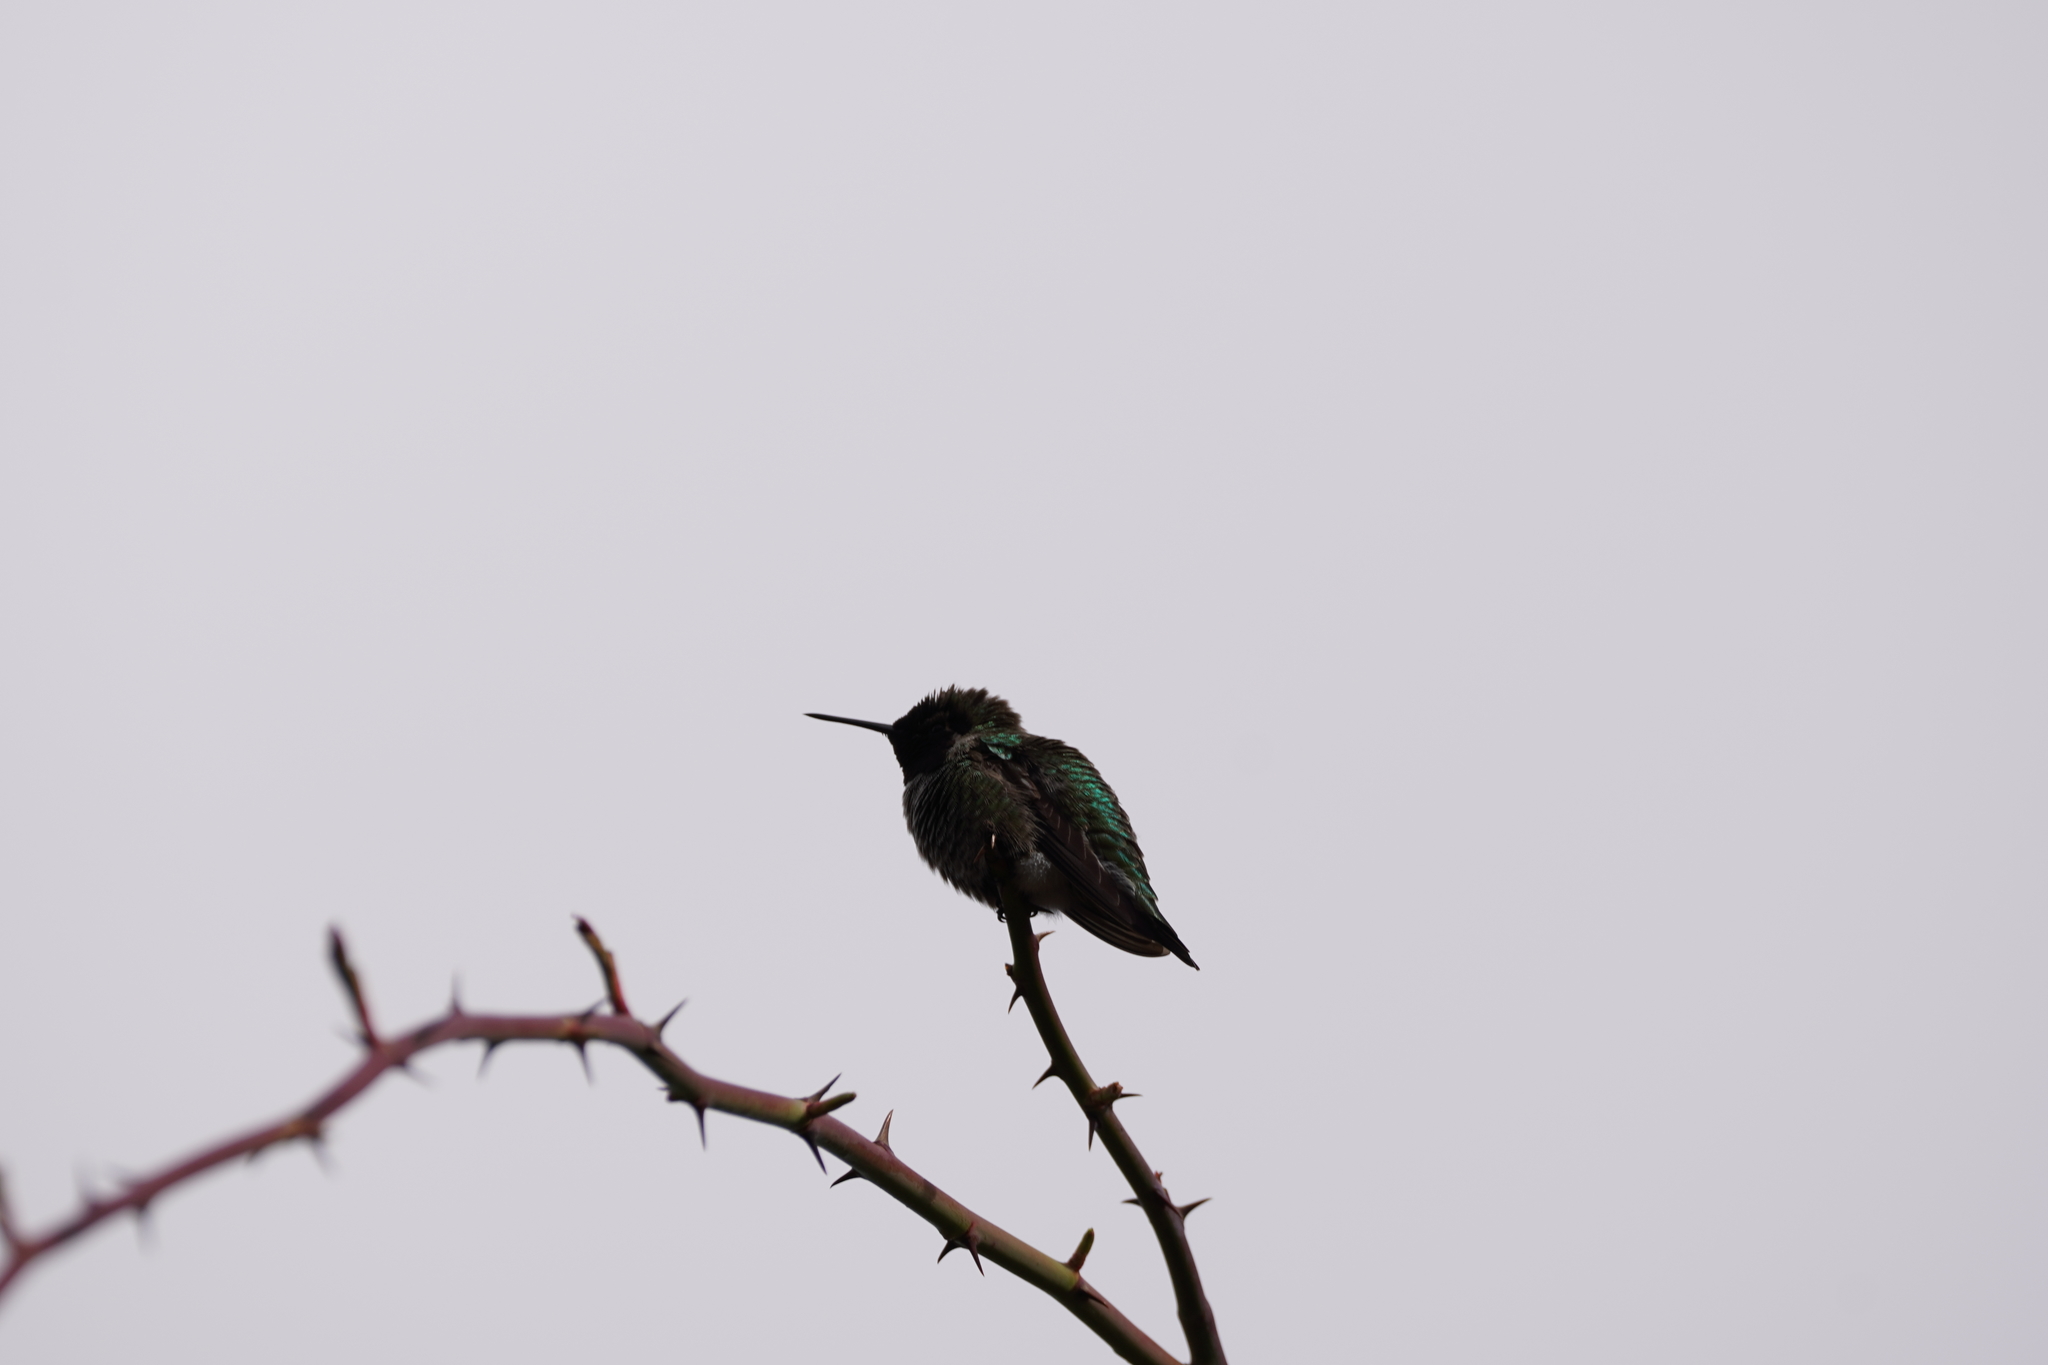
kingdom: Animalia
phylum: Chordata
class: Aves
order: Apodiformes
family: Trochilidae
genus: Calypte
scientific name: Calypte anna
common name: Anna's hummingbird
